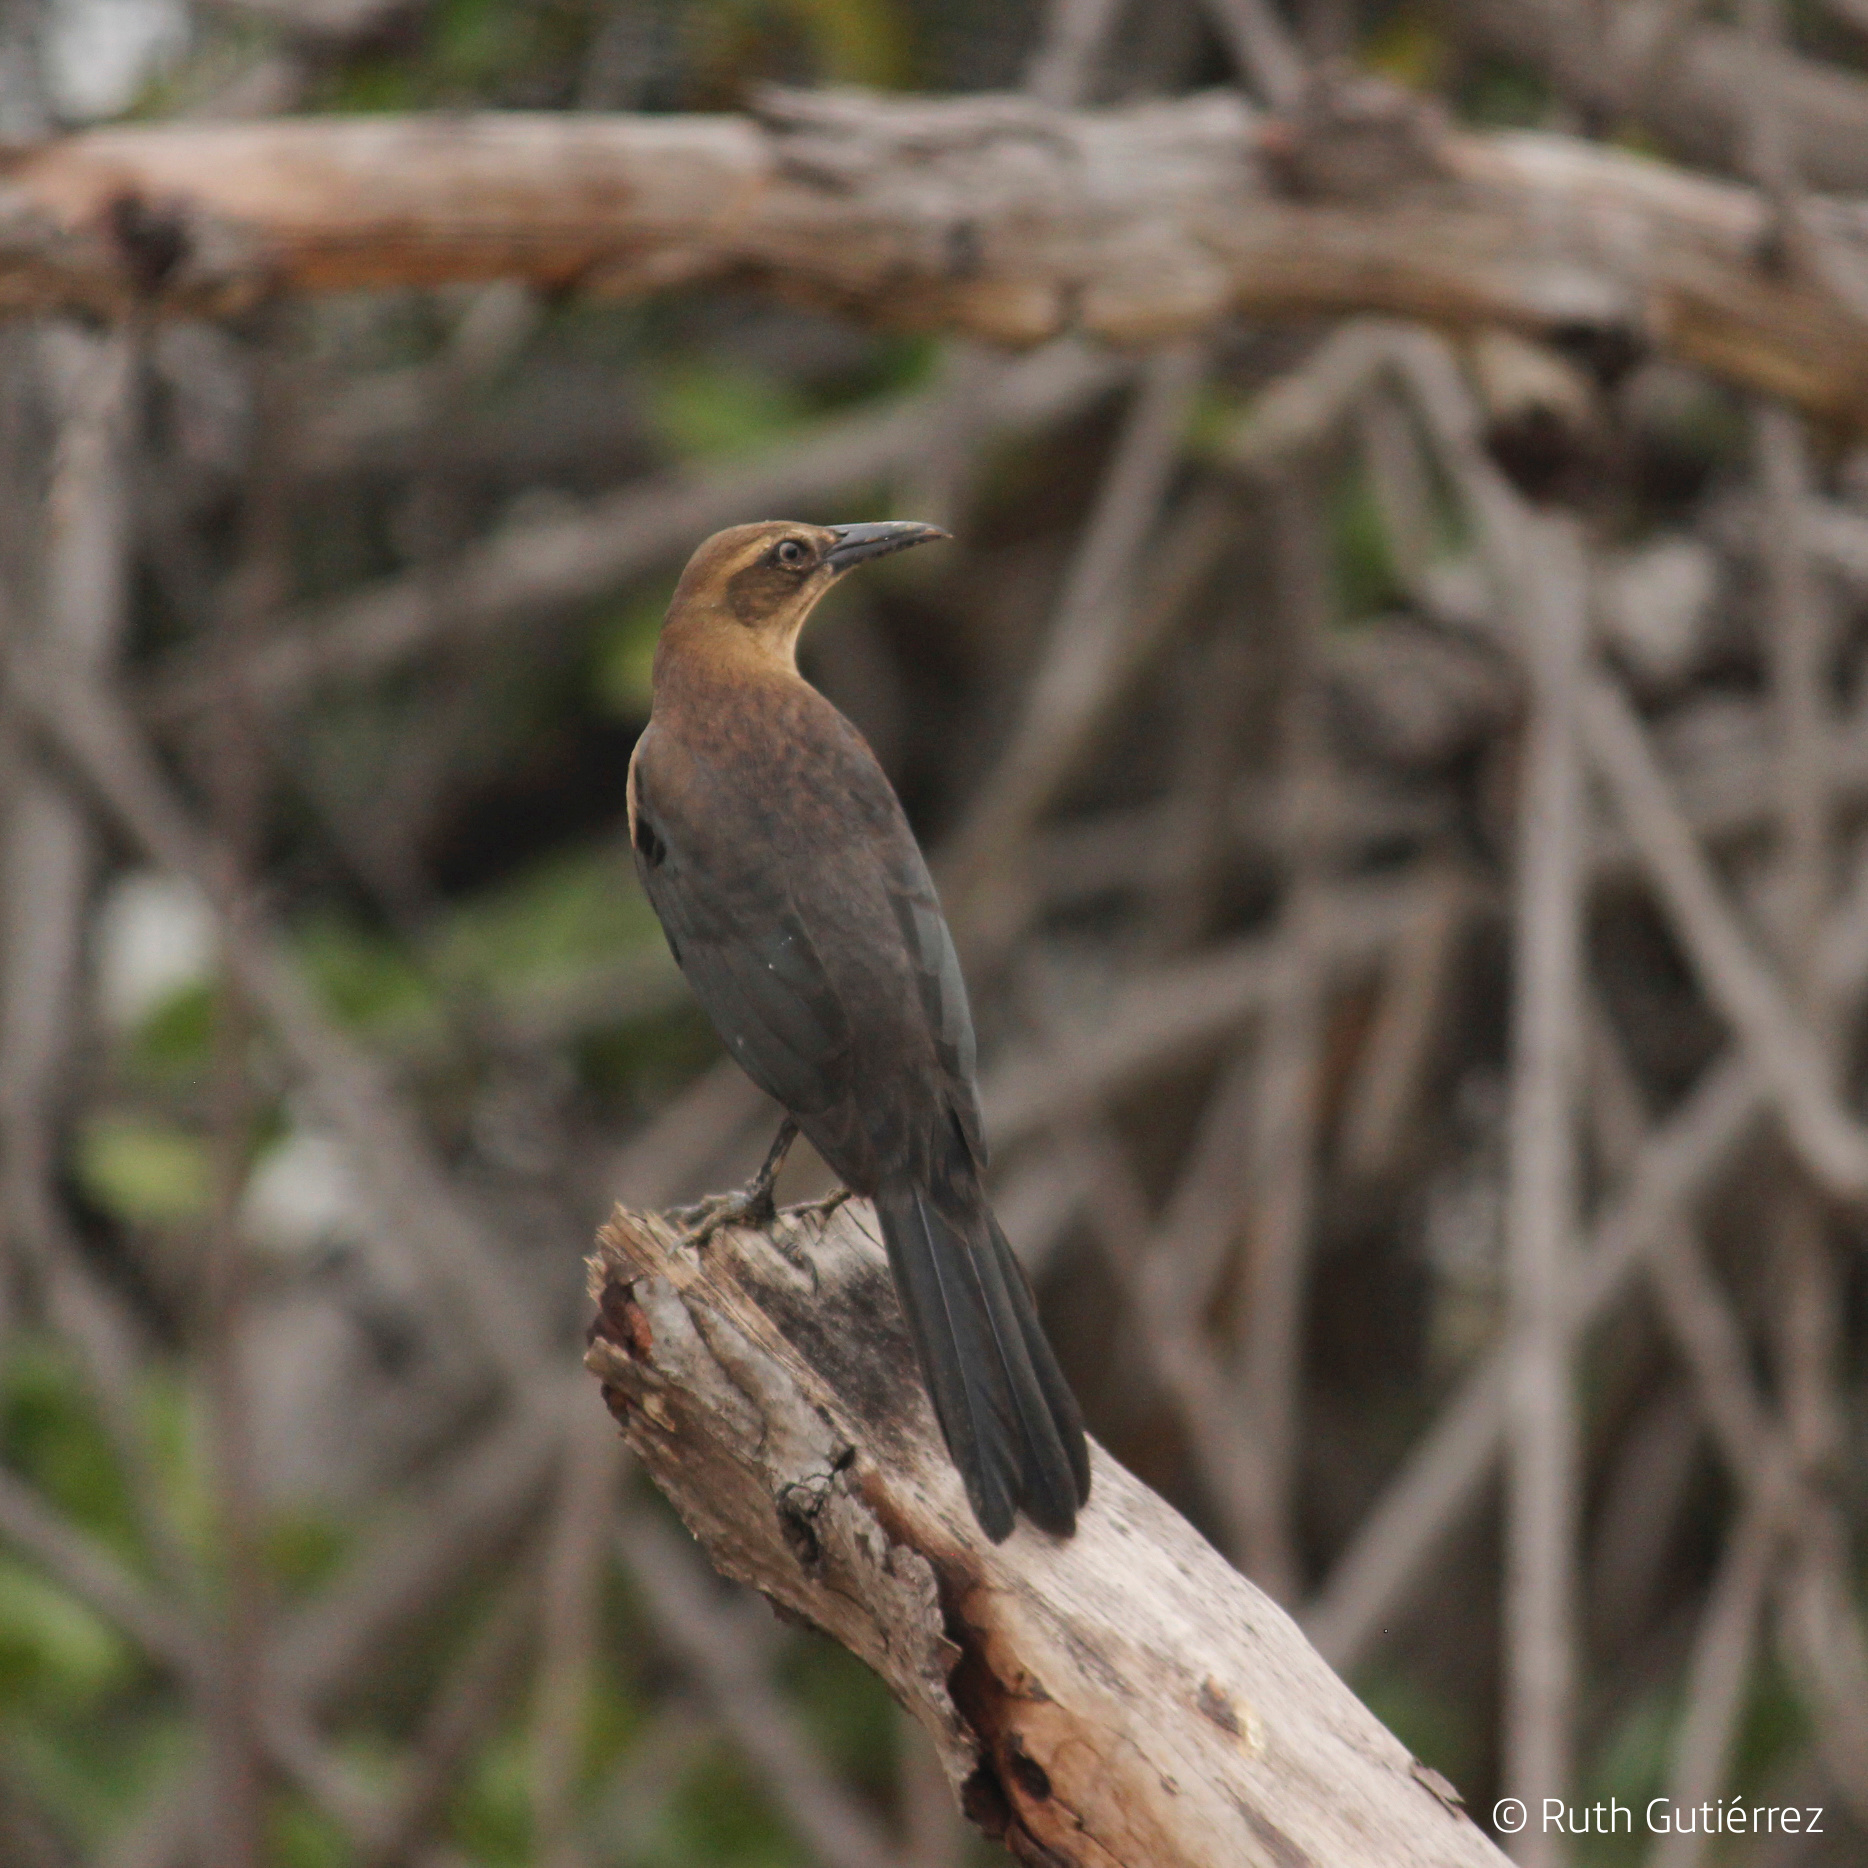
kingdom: Animalia
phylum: Chordata
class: Aves
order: Passeriformes
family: Icteridae
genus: Quiscalus
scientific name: Quiscalus mexicanus
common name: Great-tailed grackle
